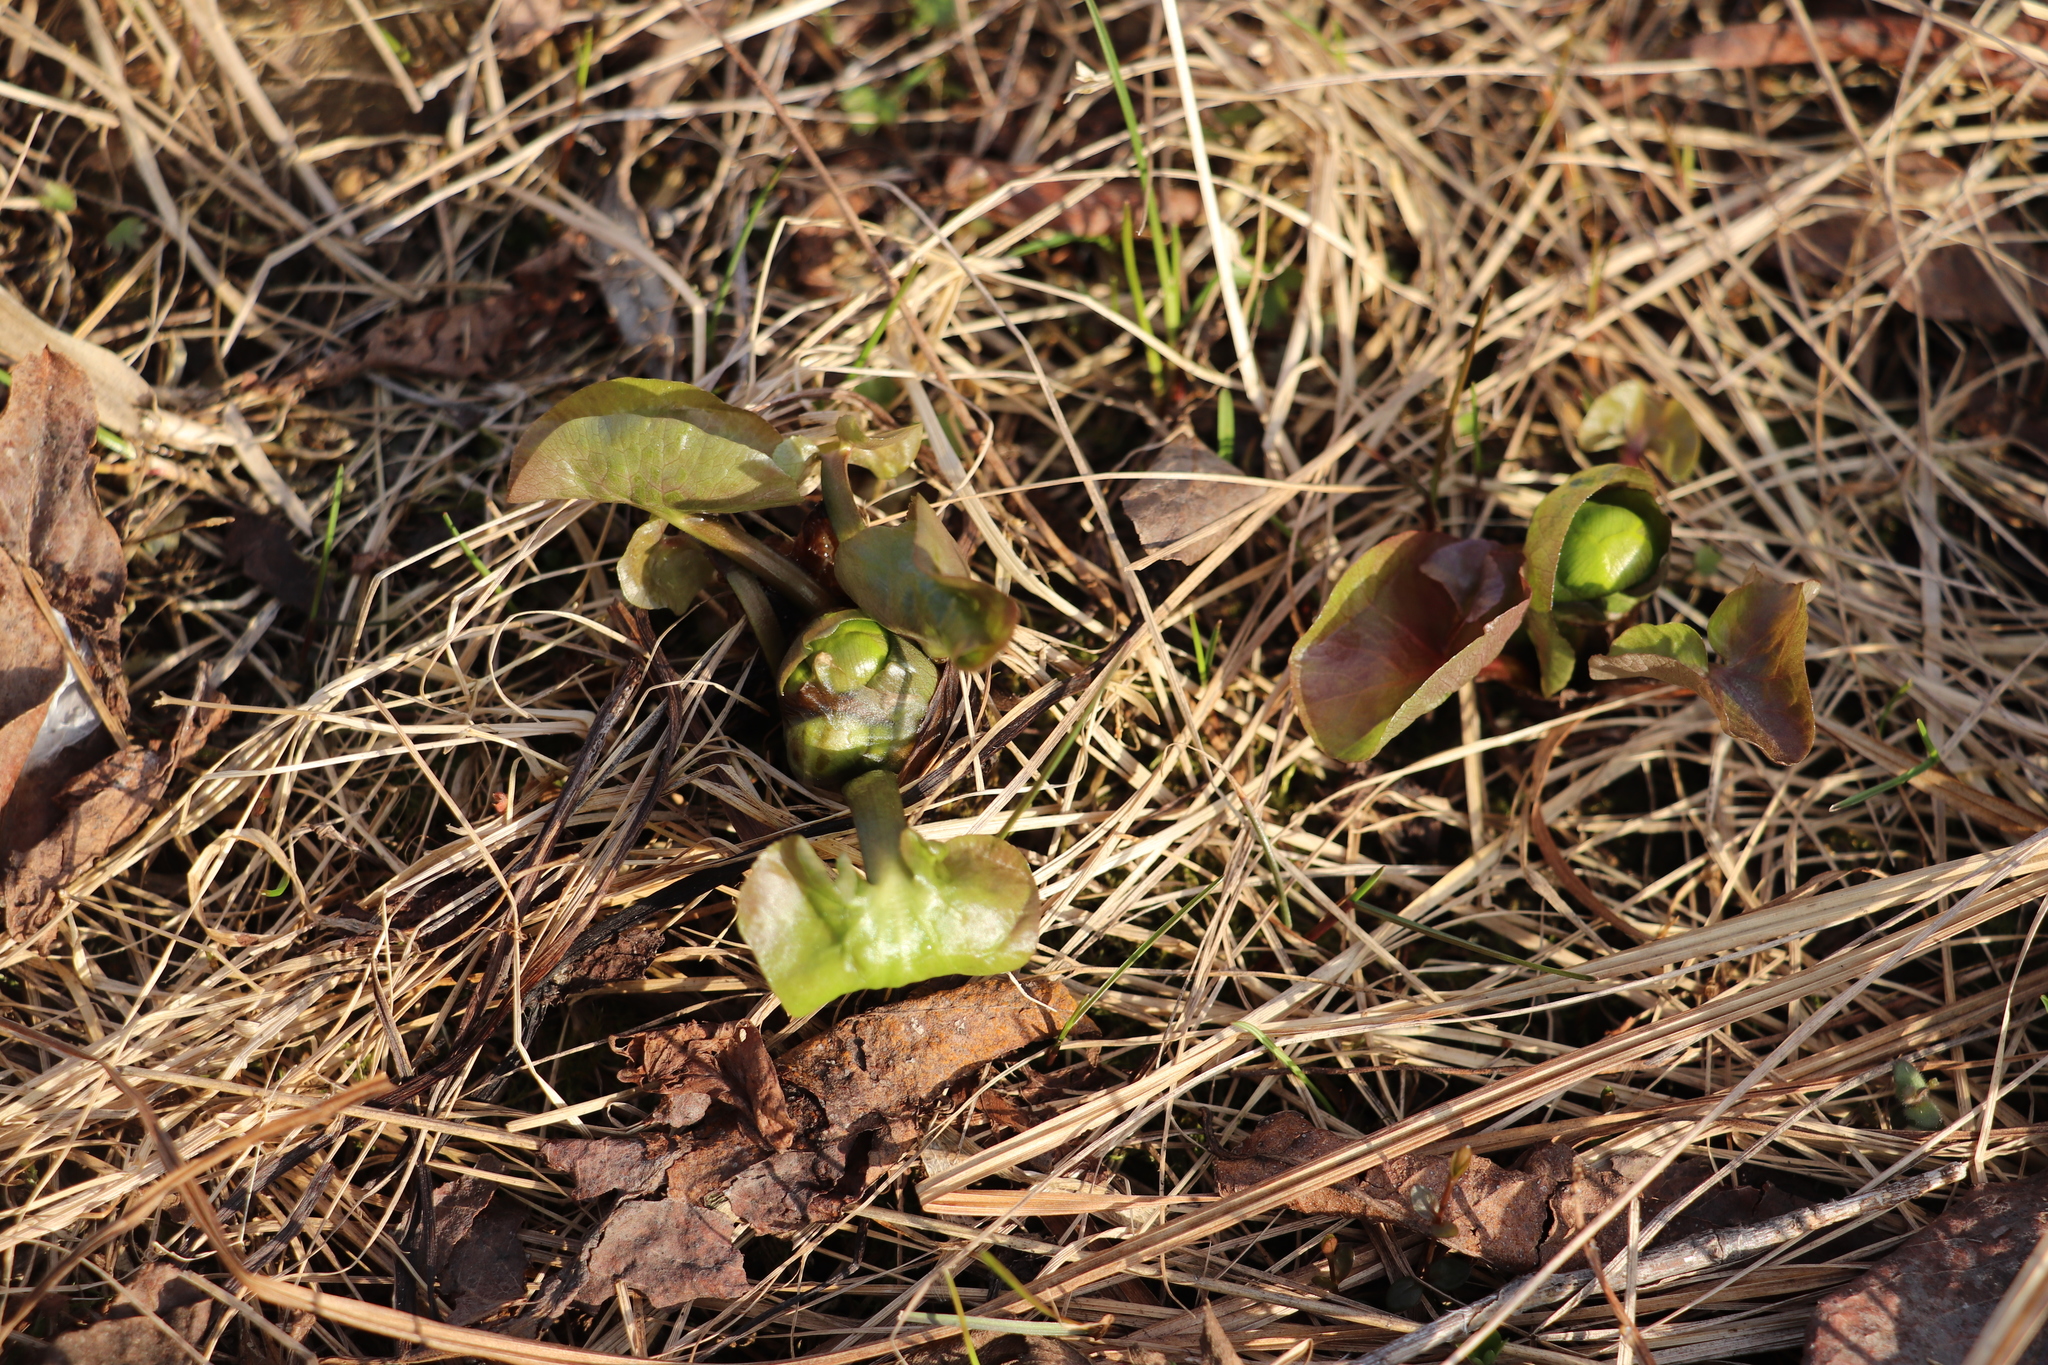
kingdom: Plantae
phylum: Tracheophyta
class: Magnoliopsida
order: Ranunculales
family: Ranunculaceae
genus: Caltha
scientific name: Caltha palustris
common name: Marsh marigold
